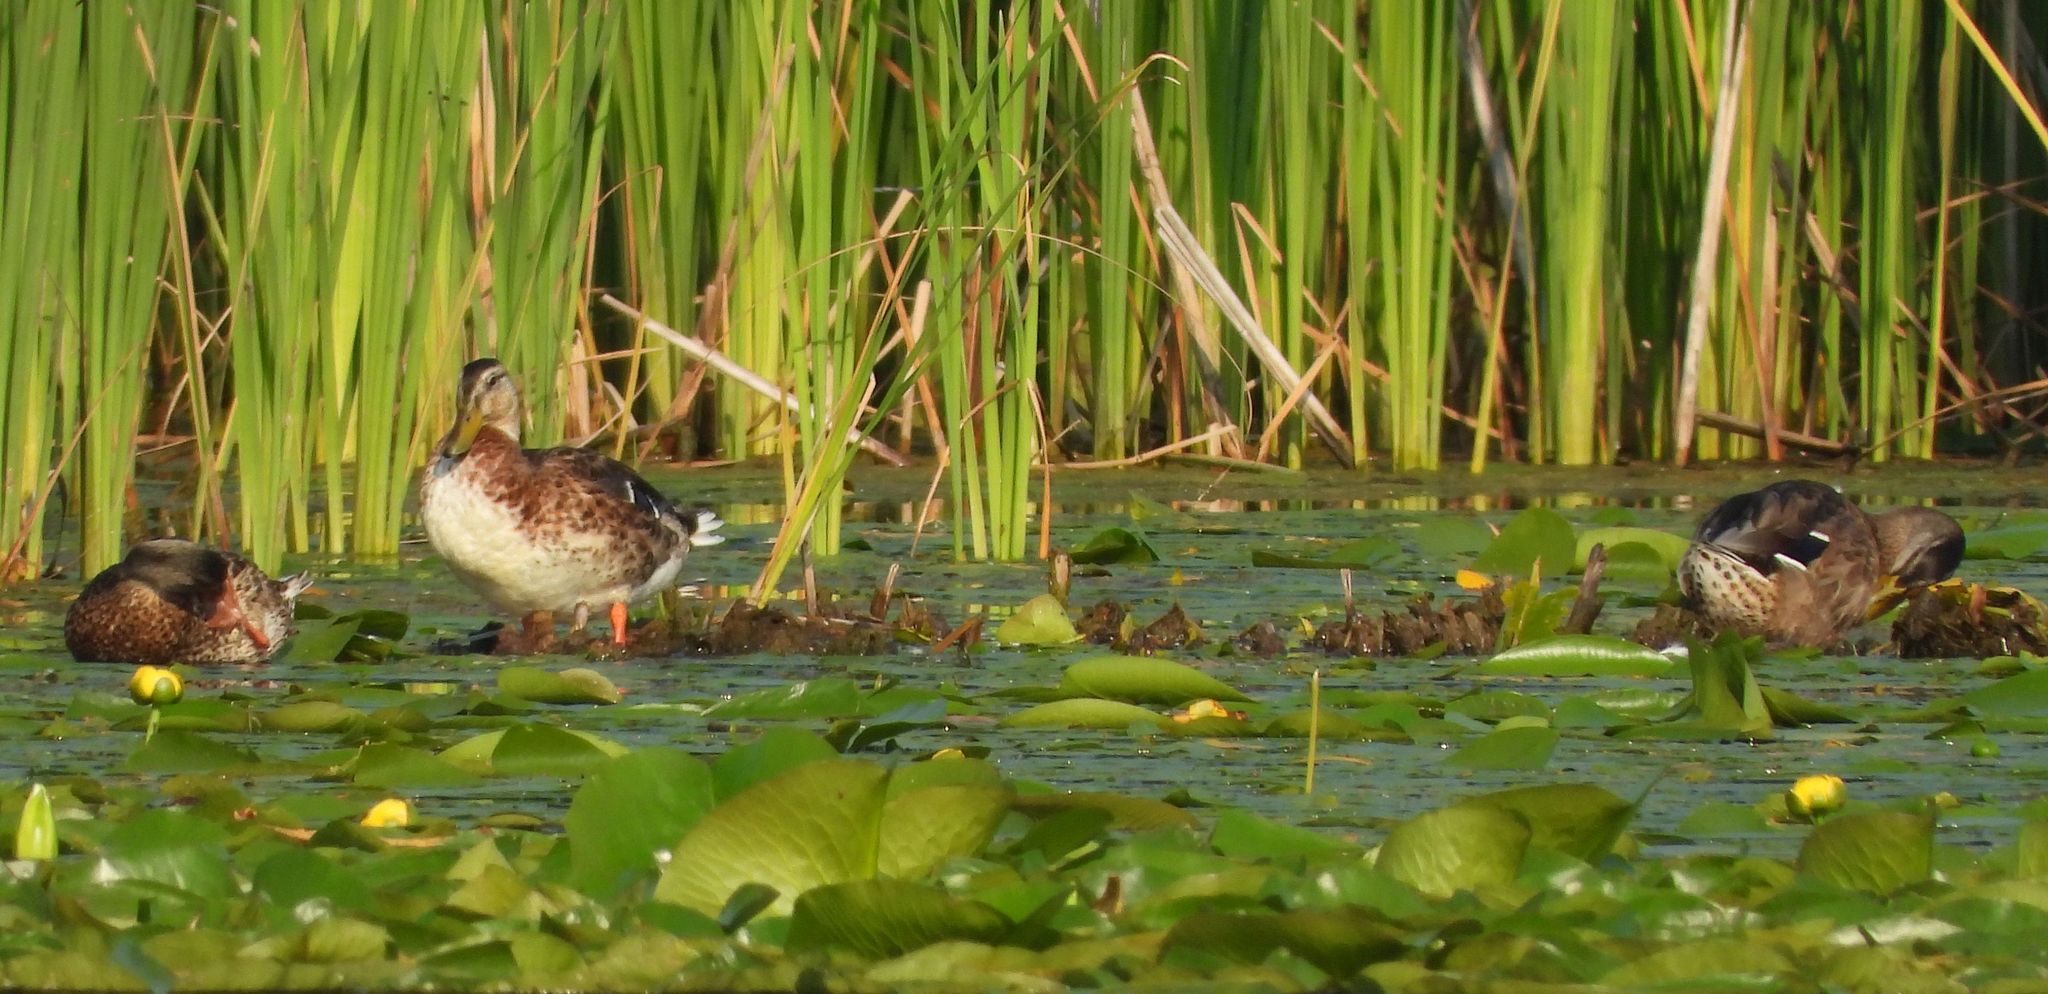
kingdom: Animalia
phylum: Chordata
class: Aves
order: Anseriformes
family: Anatidae
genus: Anas
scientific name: Anas platyrhynchos
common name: Mallard
